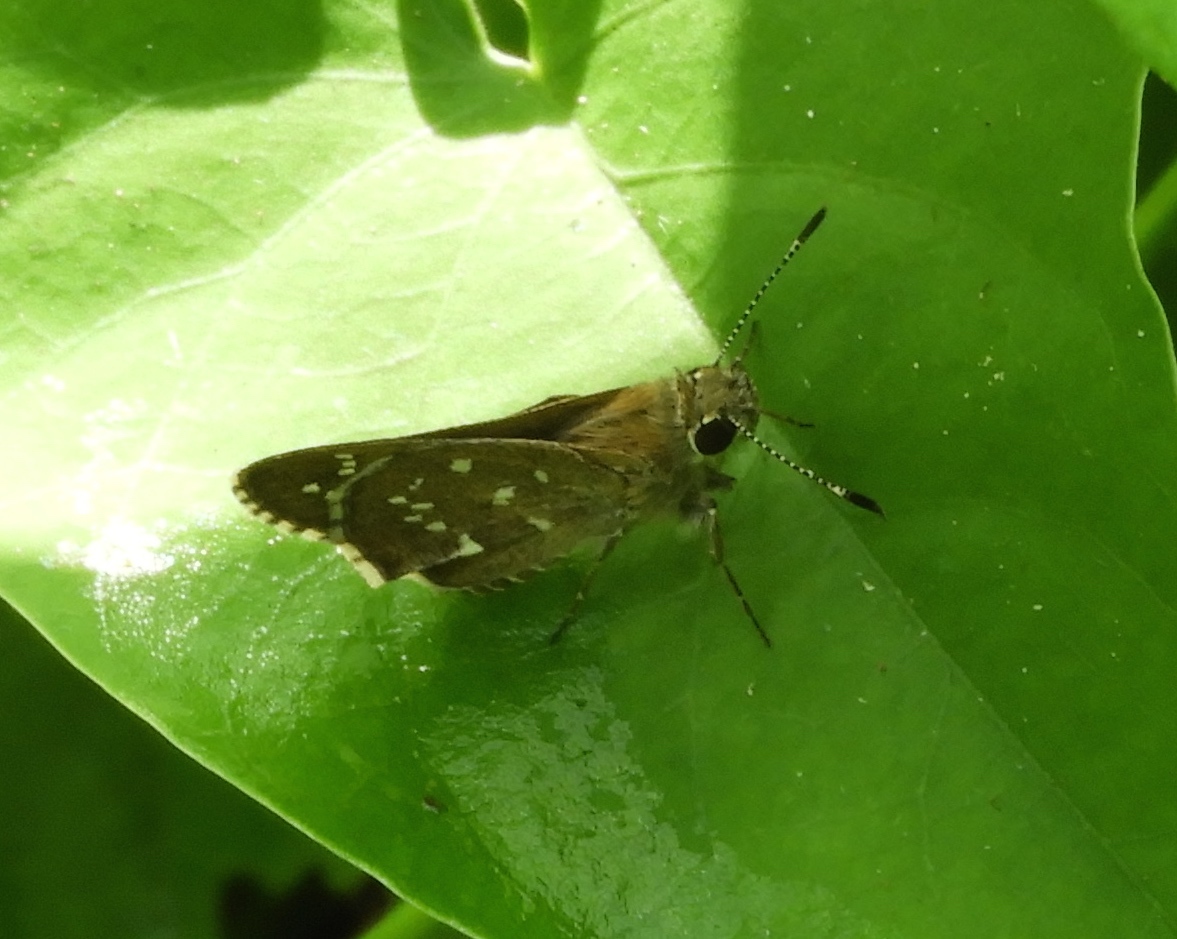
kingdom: Animalia
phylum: Arthropoda
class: Insecta
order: Lepidoptera
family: Hesperiidae
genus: Mastor
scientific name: Mastor tolteca
